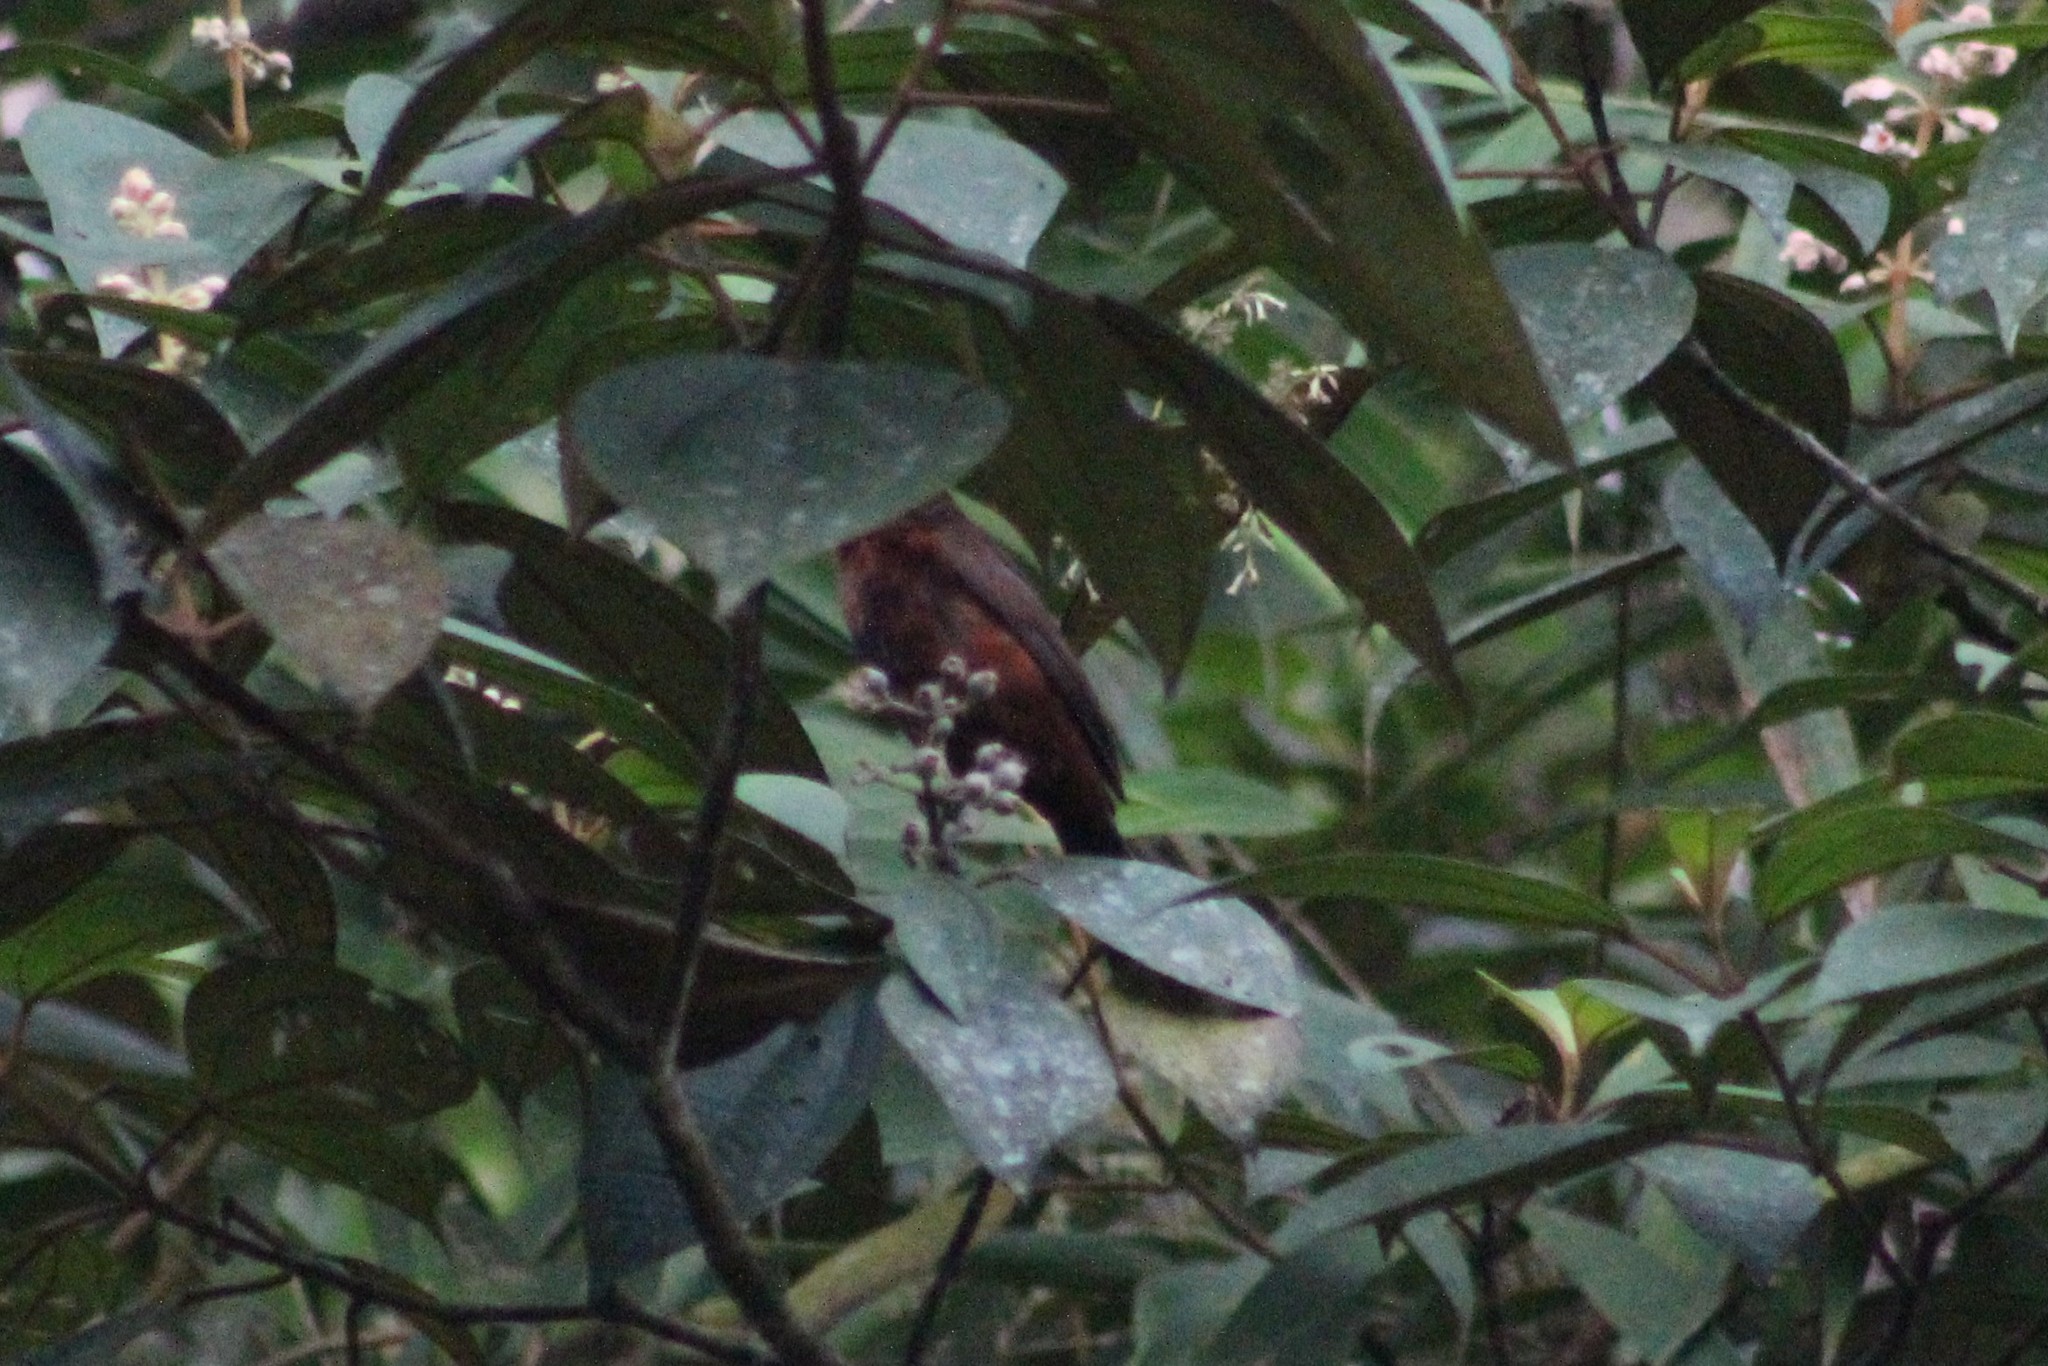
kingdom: Animalia
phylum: Chordata
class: Aves
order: Passeriformes
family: Thraupidae
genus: Ramphocelus
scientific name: Ramphocelus carbo
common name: Silver-beaked tanager
